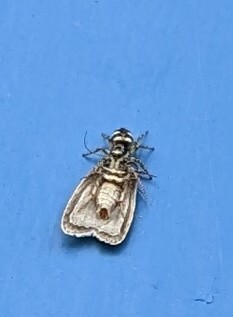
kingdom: Animalia
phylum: Arthropoda
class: Arachnida
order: Araneae
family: Salticidae
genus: Salticus
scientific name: Salticus scenicus
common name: Zebra jumper
